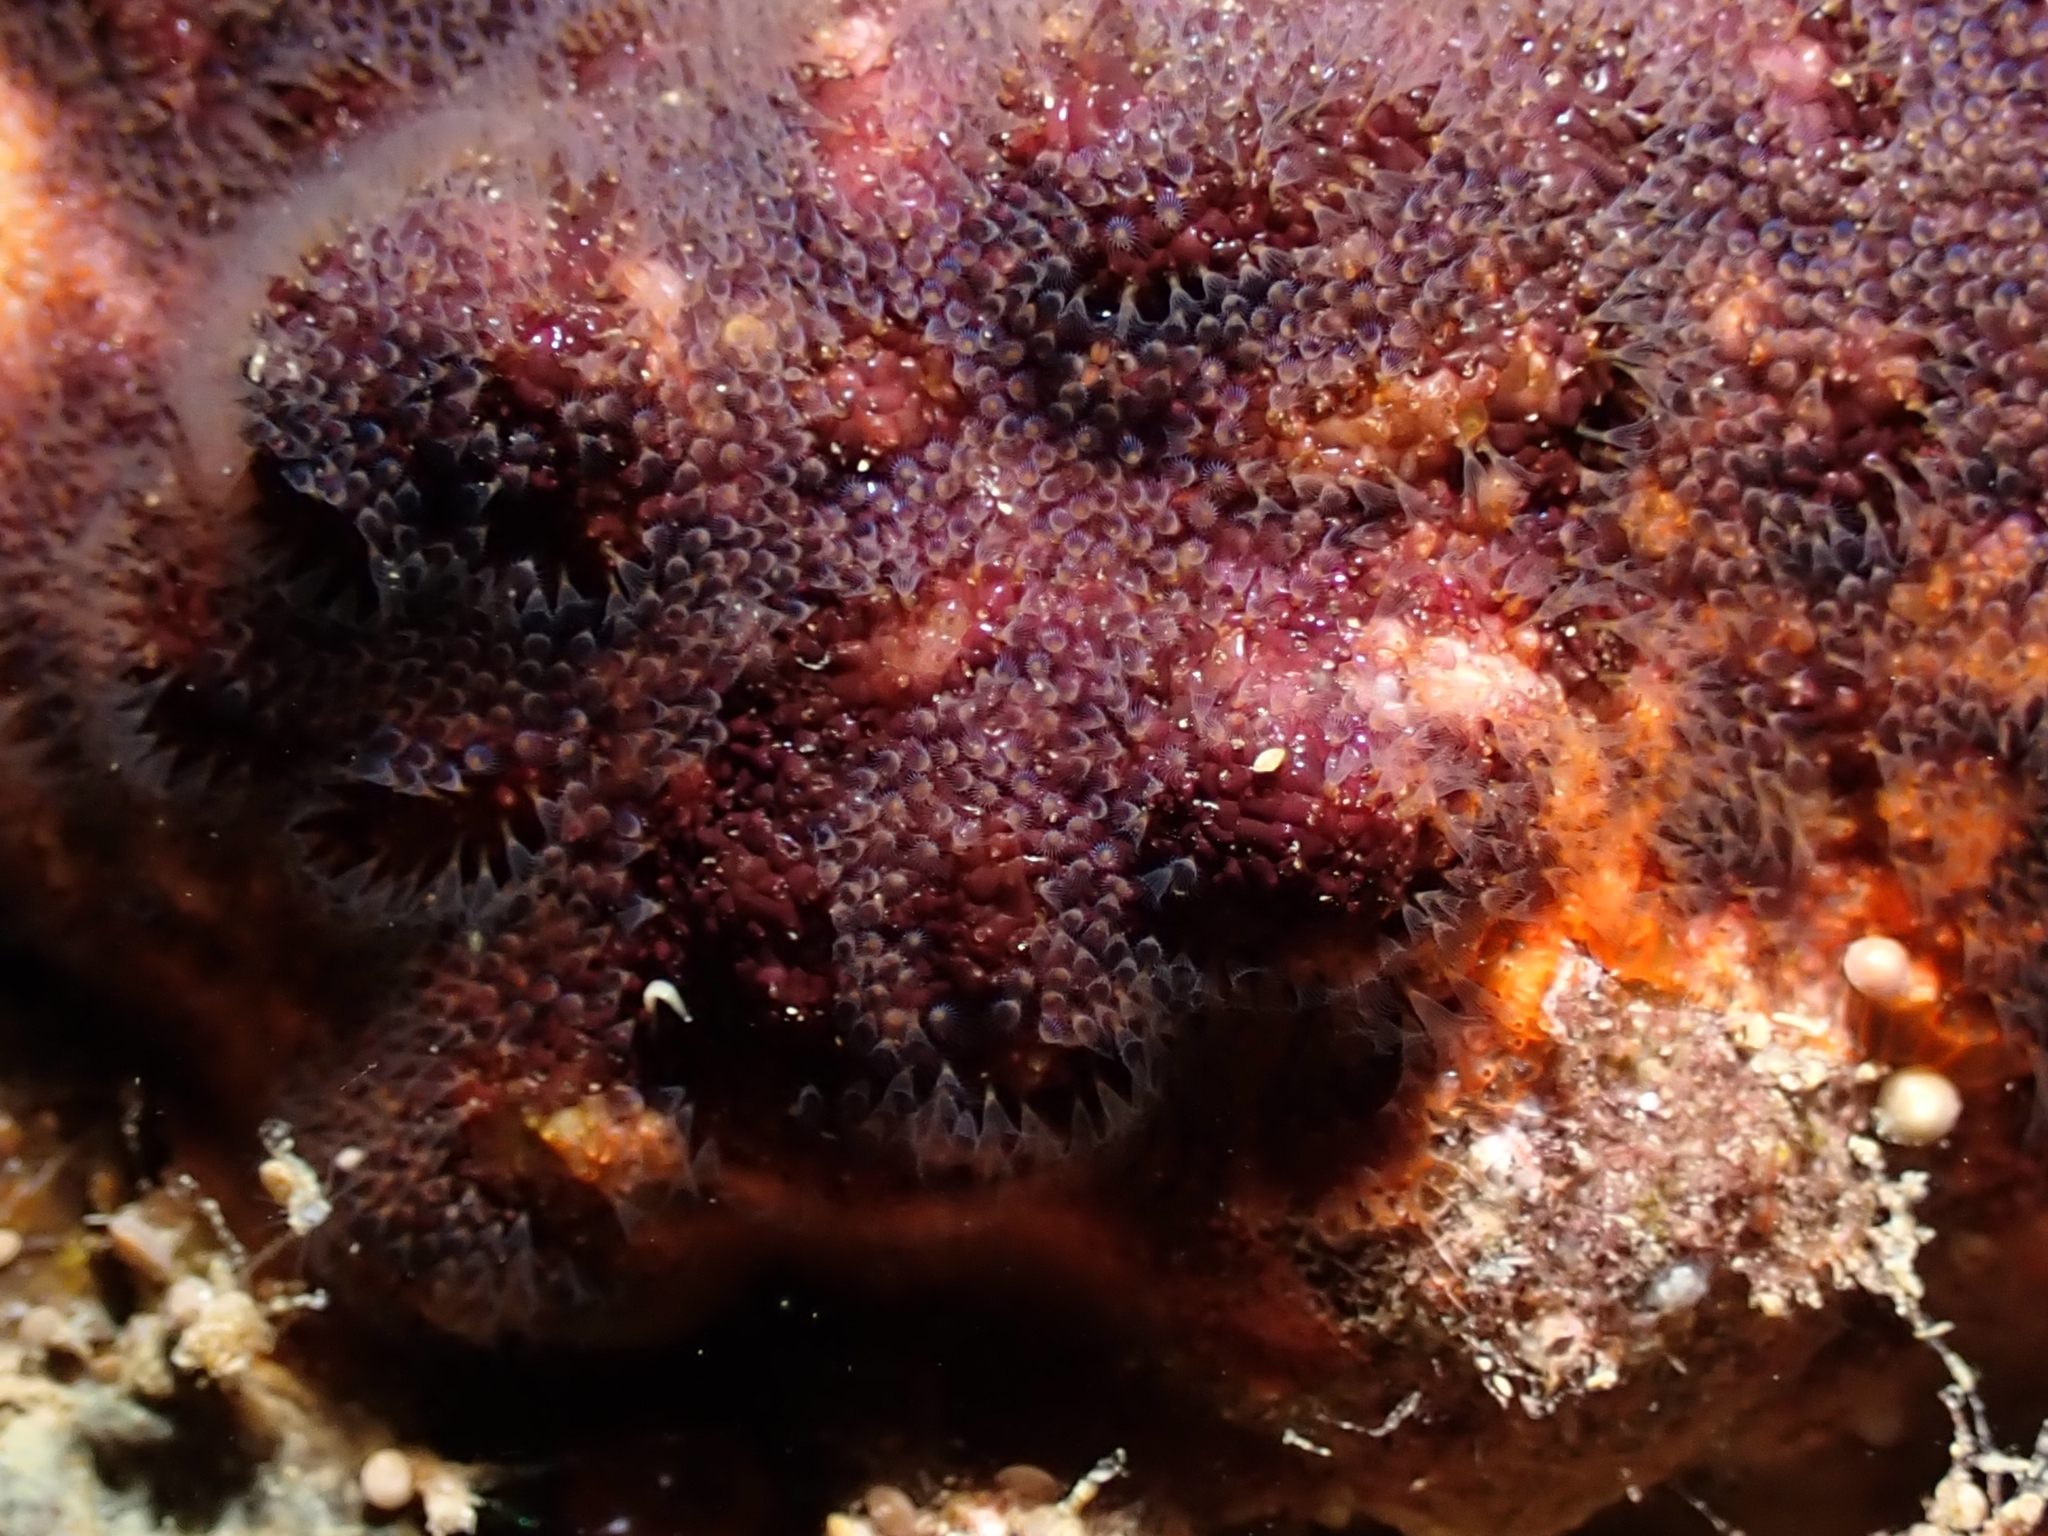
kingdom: Animalia
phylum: Bryozoa
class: Gymnolaemata
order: Cheilostomatida
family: Schizoporellidae
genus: Schizoporella
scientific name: Schizoporella errata
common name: Branching bryozoan
